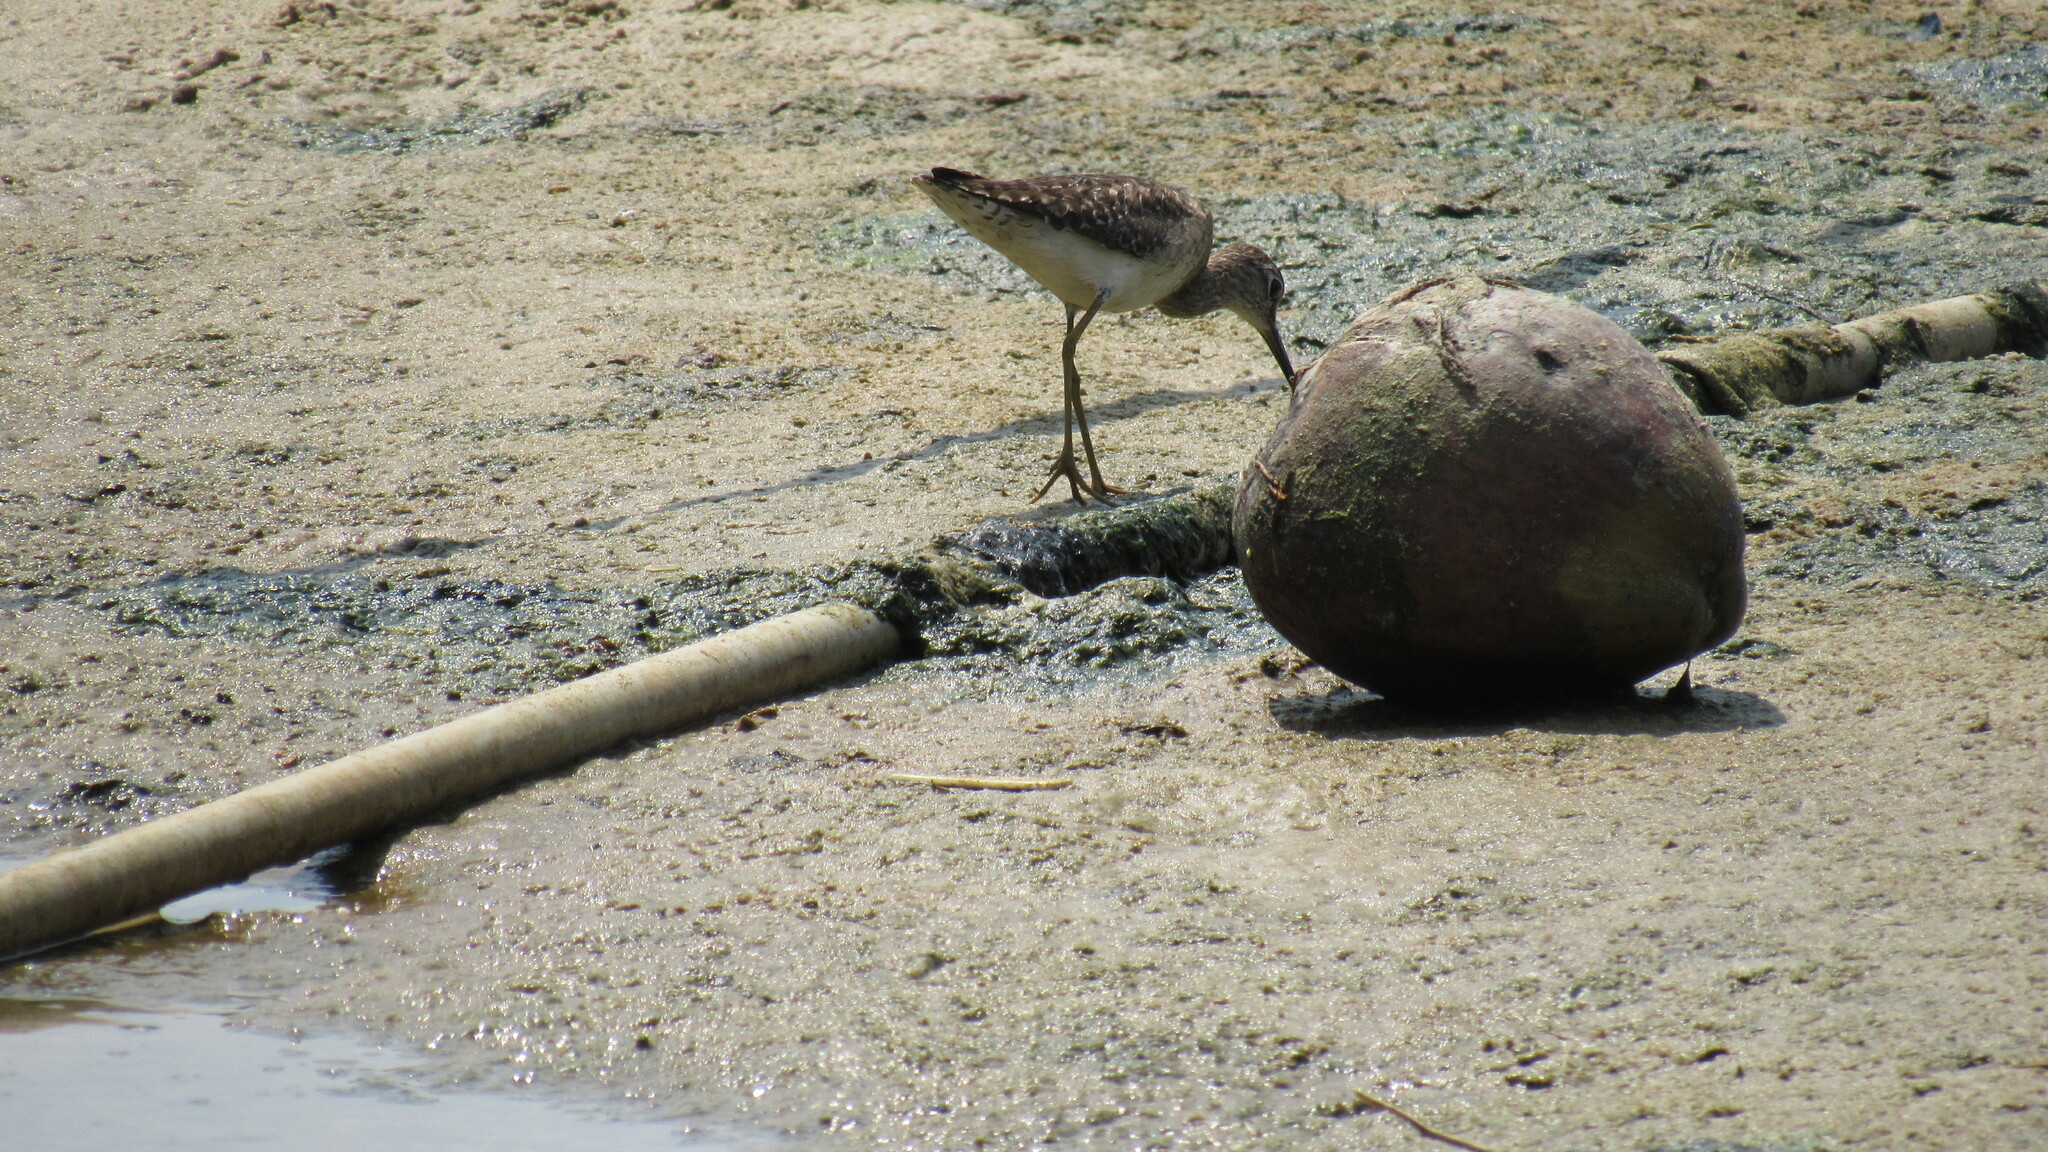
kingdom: Animalia
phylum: Chordata
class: Aves
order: Charadriiformes
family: Scolopacidae
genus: Tringa
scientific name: Tringa glareola
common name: Wood sandpiper
